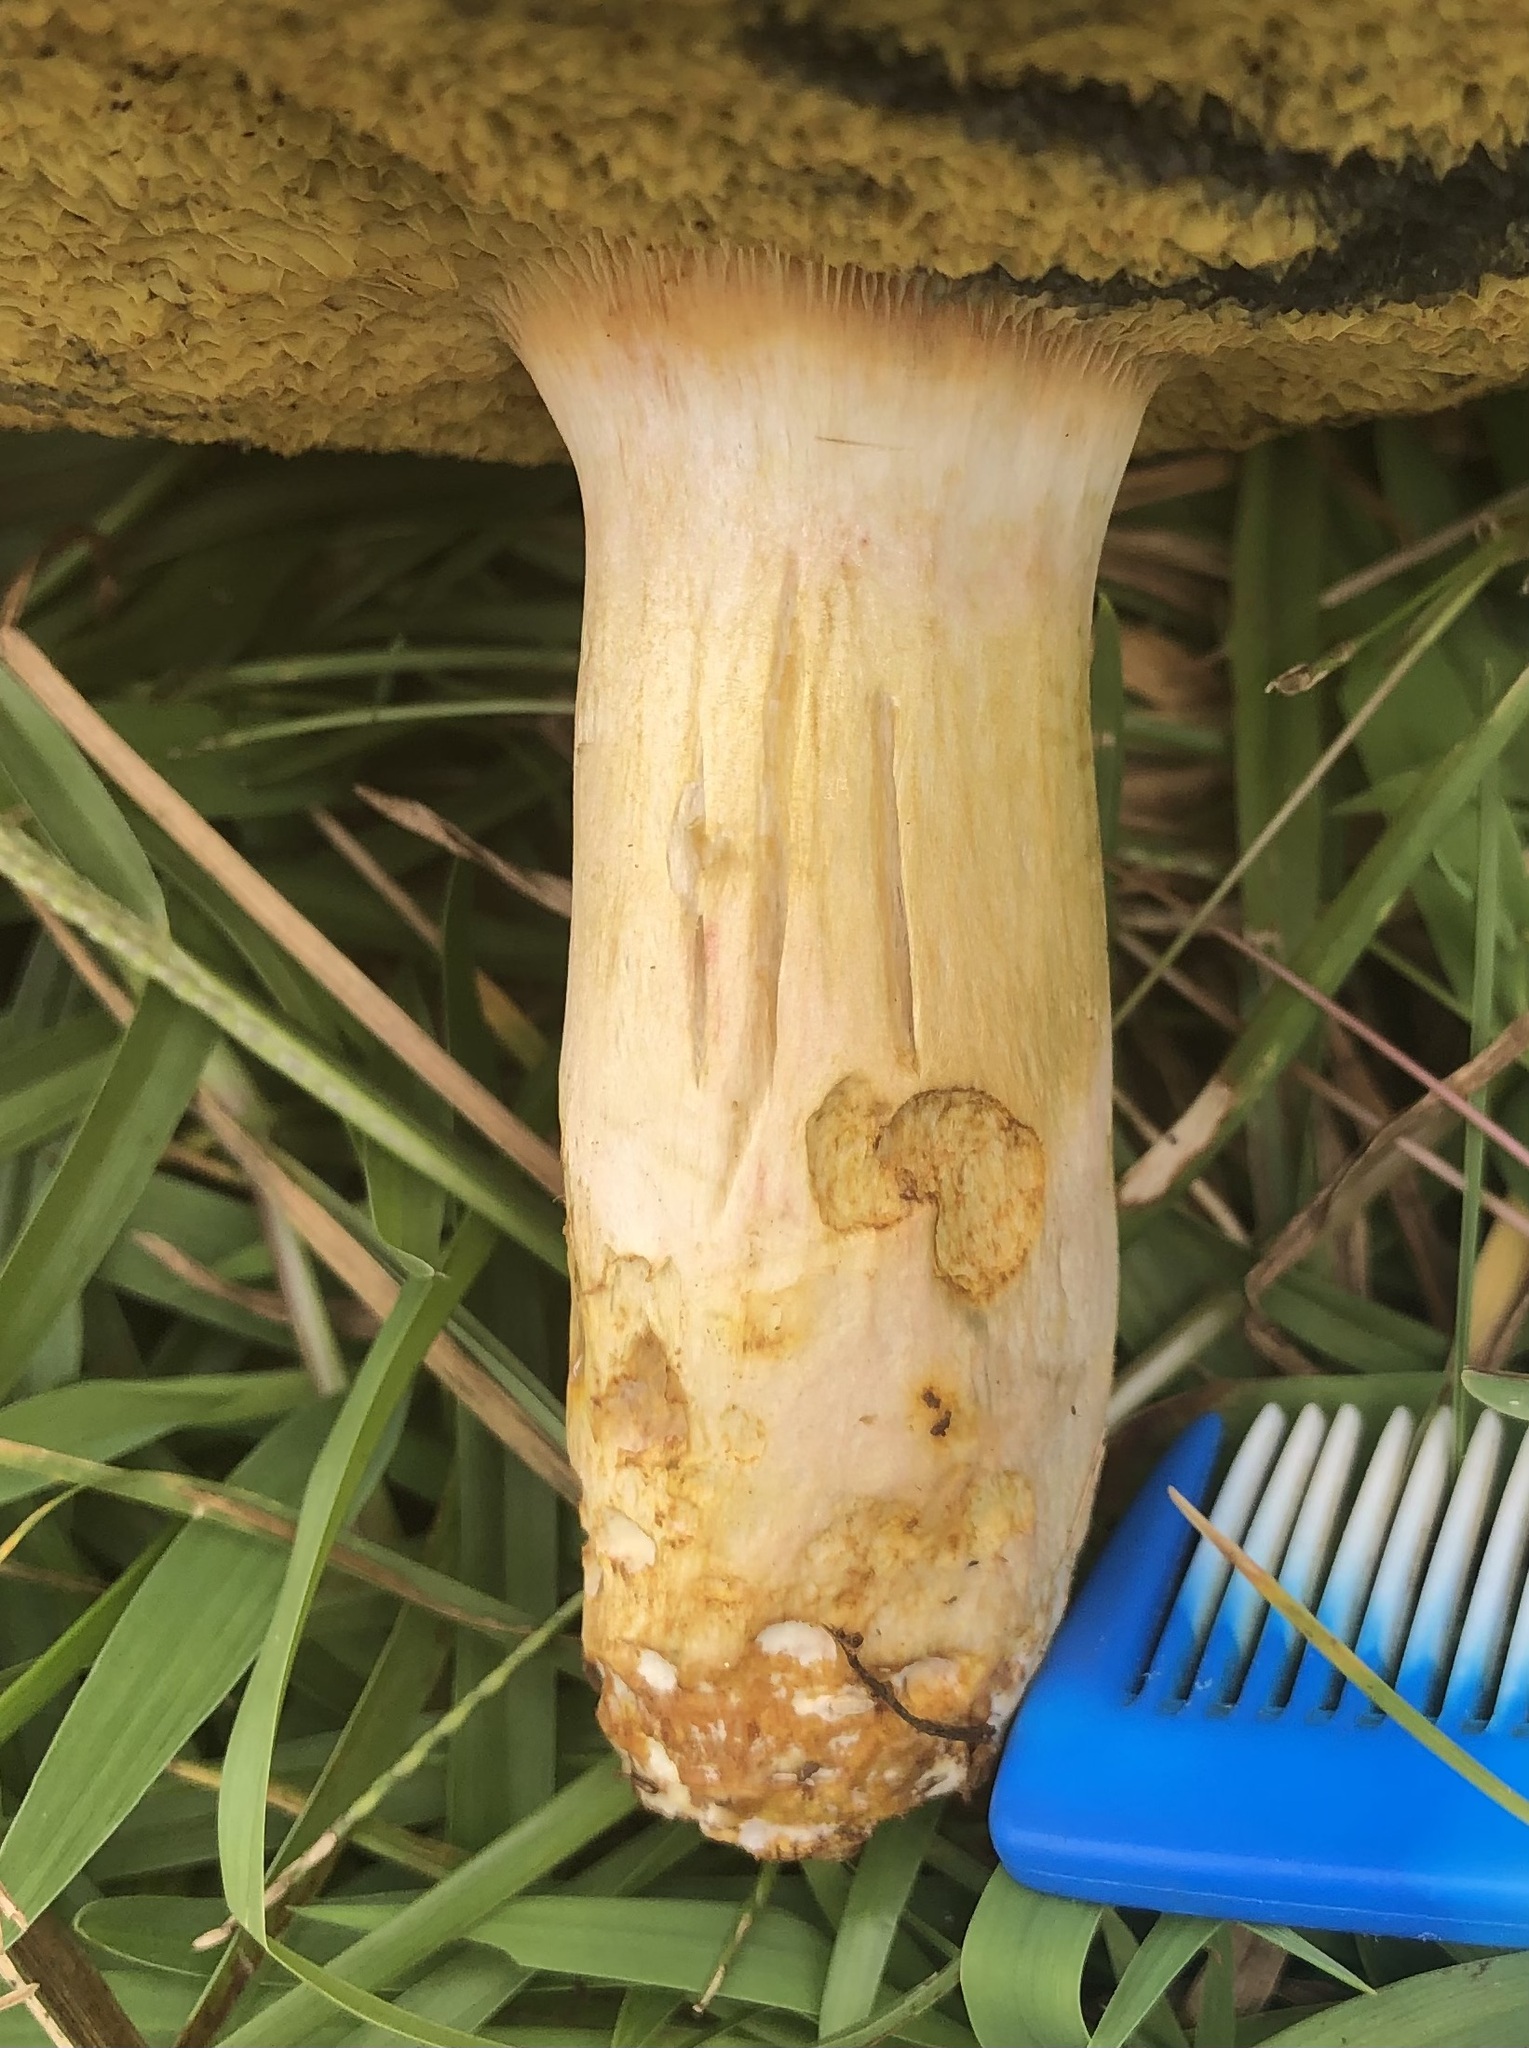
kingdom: Fungi
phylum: Basidiomycota
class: Agaricomycetes
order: Boletales
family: Boletaceae
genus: Boletus
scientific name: Boletus patrioticus
